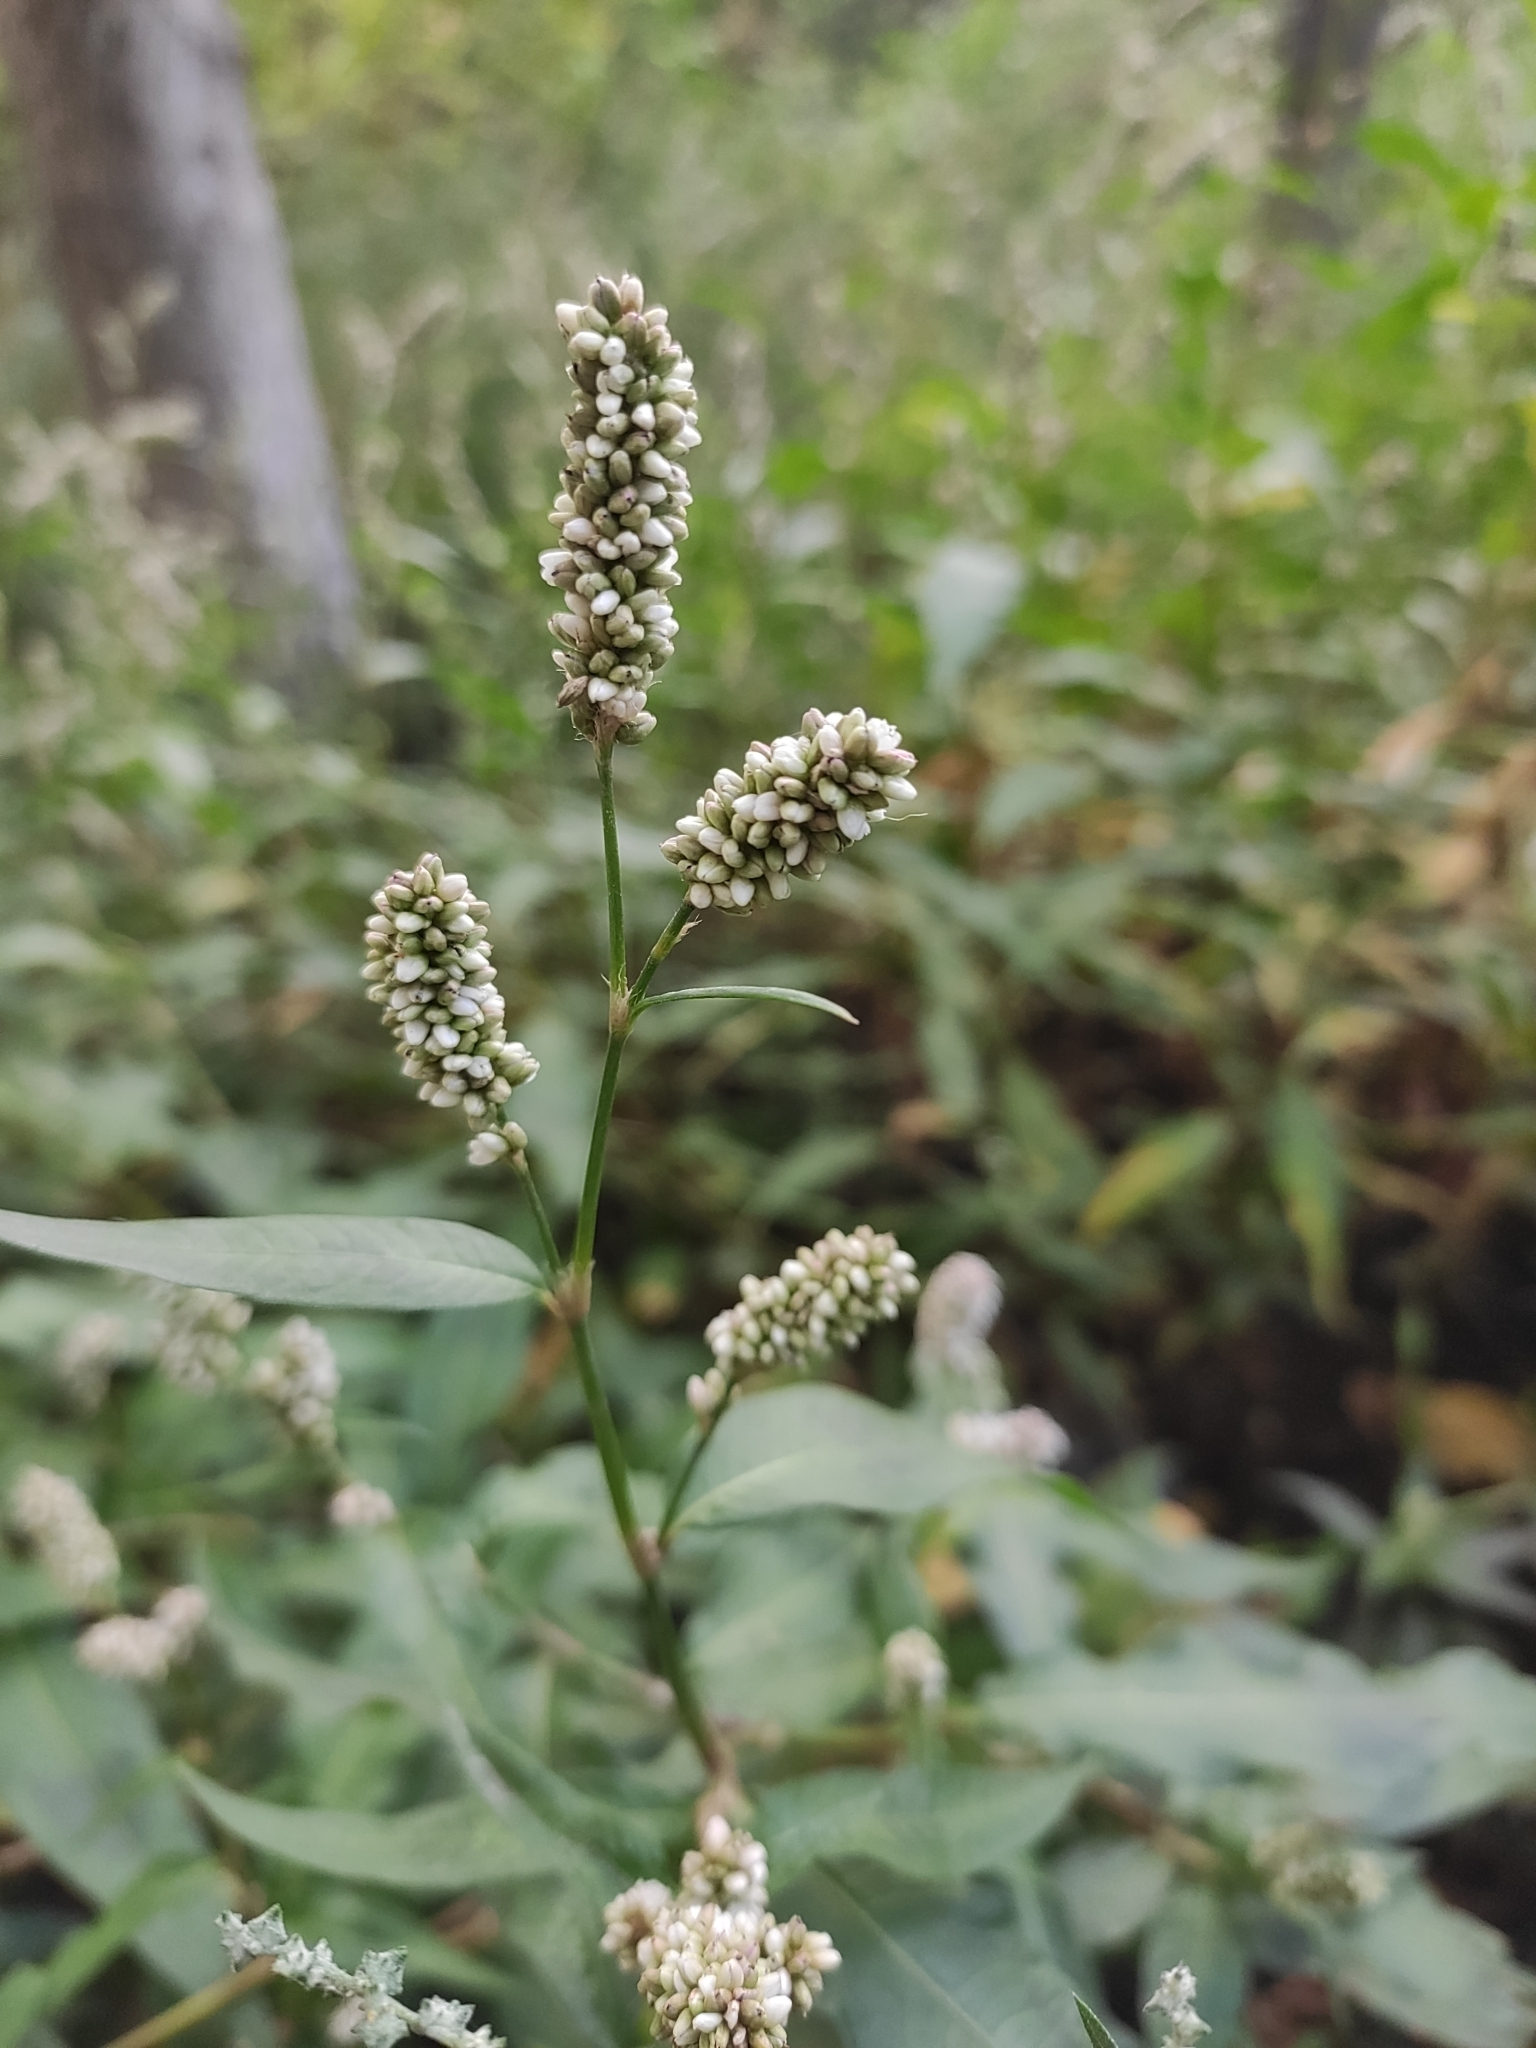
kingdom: Plantae
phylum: Tracheophyta
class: Magnoliopsida
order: Caryophyllales
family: Polygonaceae
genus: Persicaria
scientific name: Persicaria maculosa
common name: Redshank
